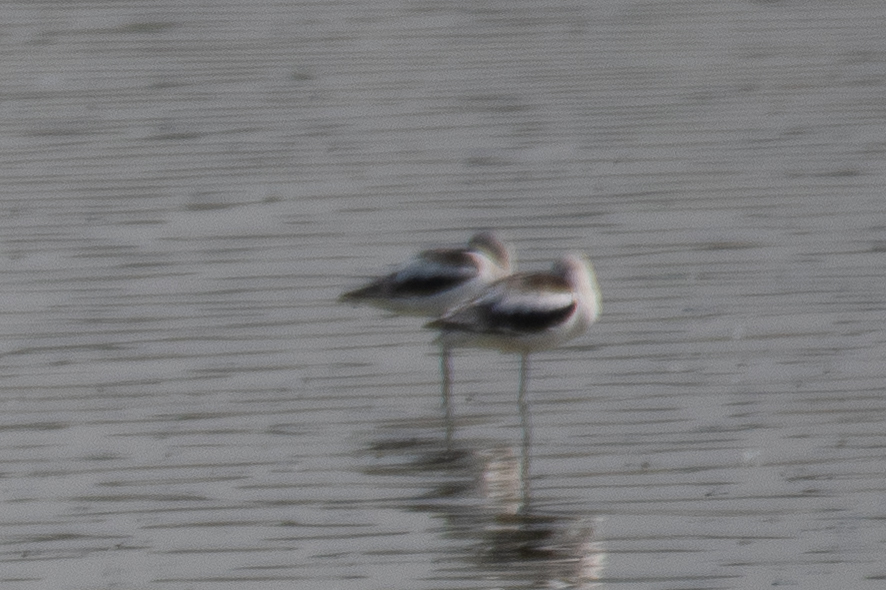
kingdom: Animalia
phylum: Chordata
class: Aves
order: Charadriiformes
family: Recurvirostridae
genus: Recurvirostra
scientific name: Recurvirostra americana
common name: American avocet
